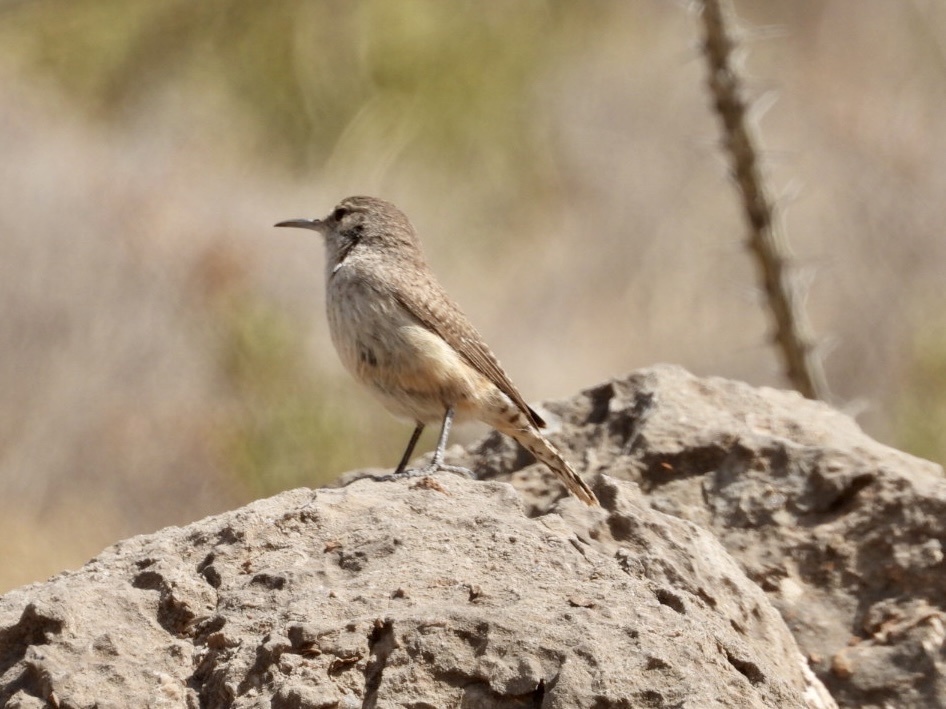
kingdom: Animalia
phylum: Chordata
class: Aves
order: Passeriformes
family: Troglodytidae
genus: Salpinctes
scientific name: Salpinctes obsoletus
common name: Rock wren
